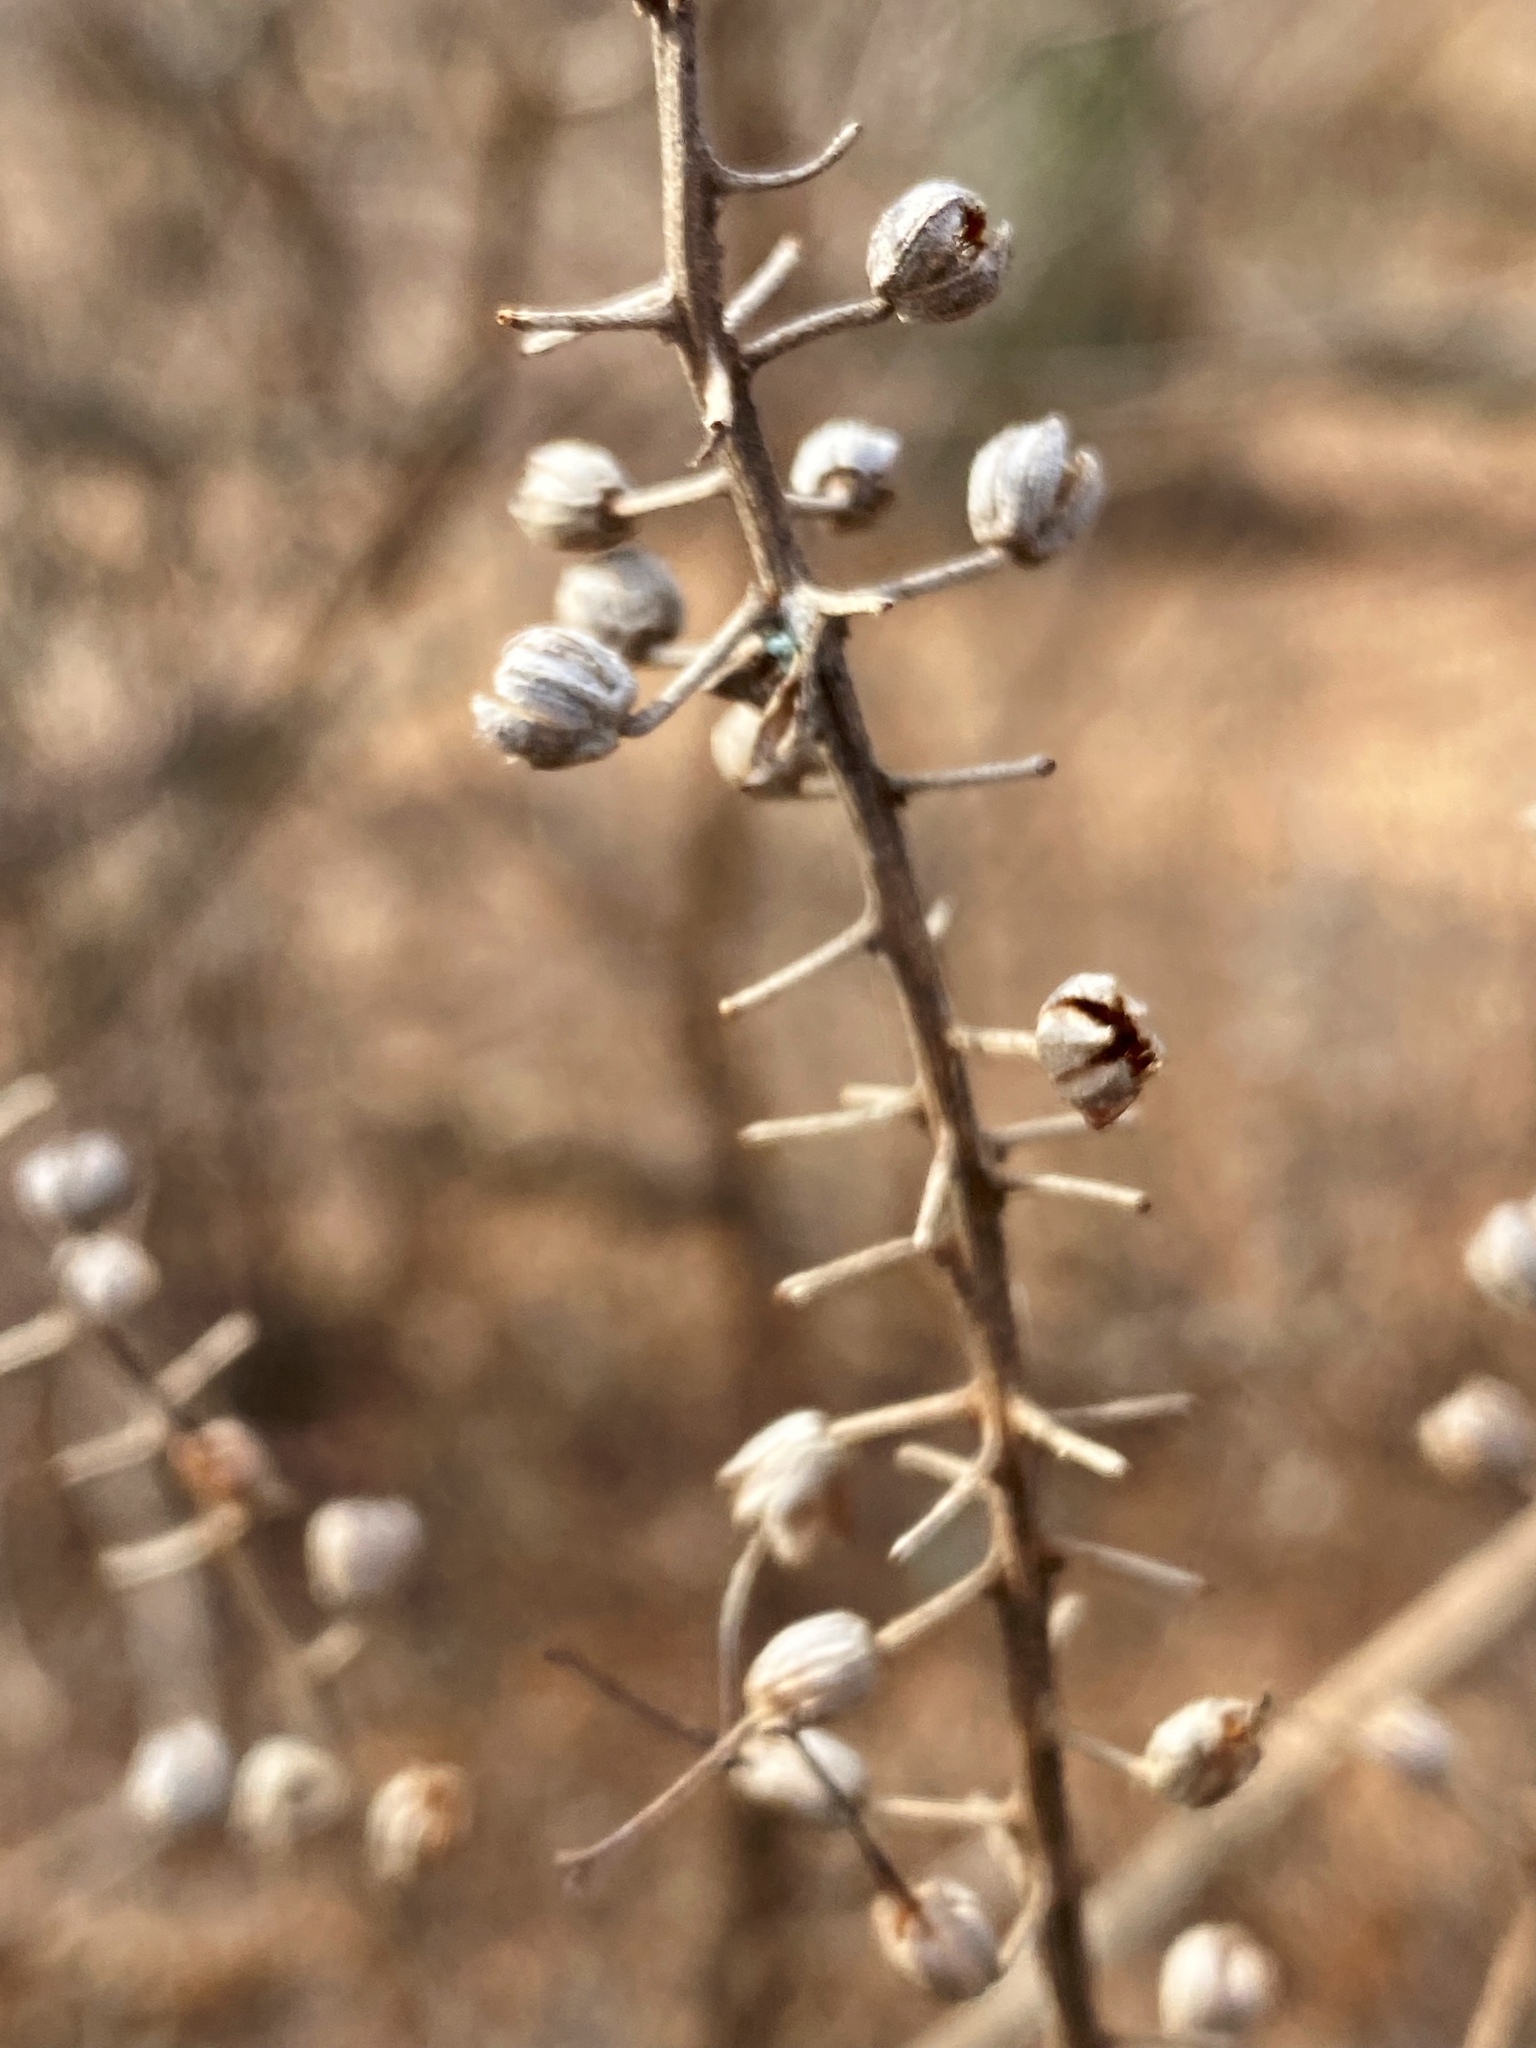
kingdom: Plantae
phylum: Tracheophyta
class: Magnoliopsida
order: Ericales
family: Clethraceae
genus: Clethra
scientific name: Clethra alnifolia
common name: Sweet pepperbush
